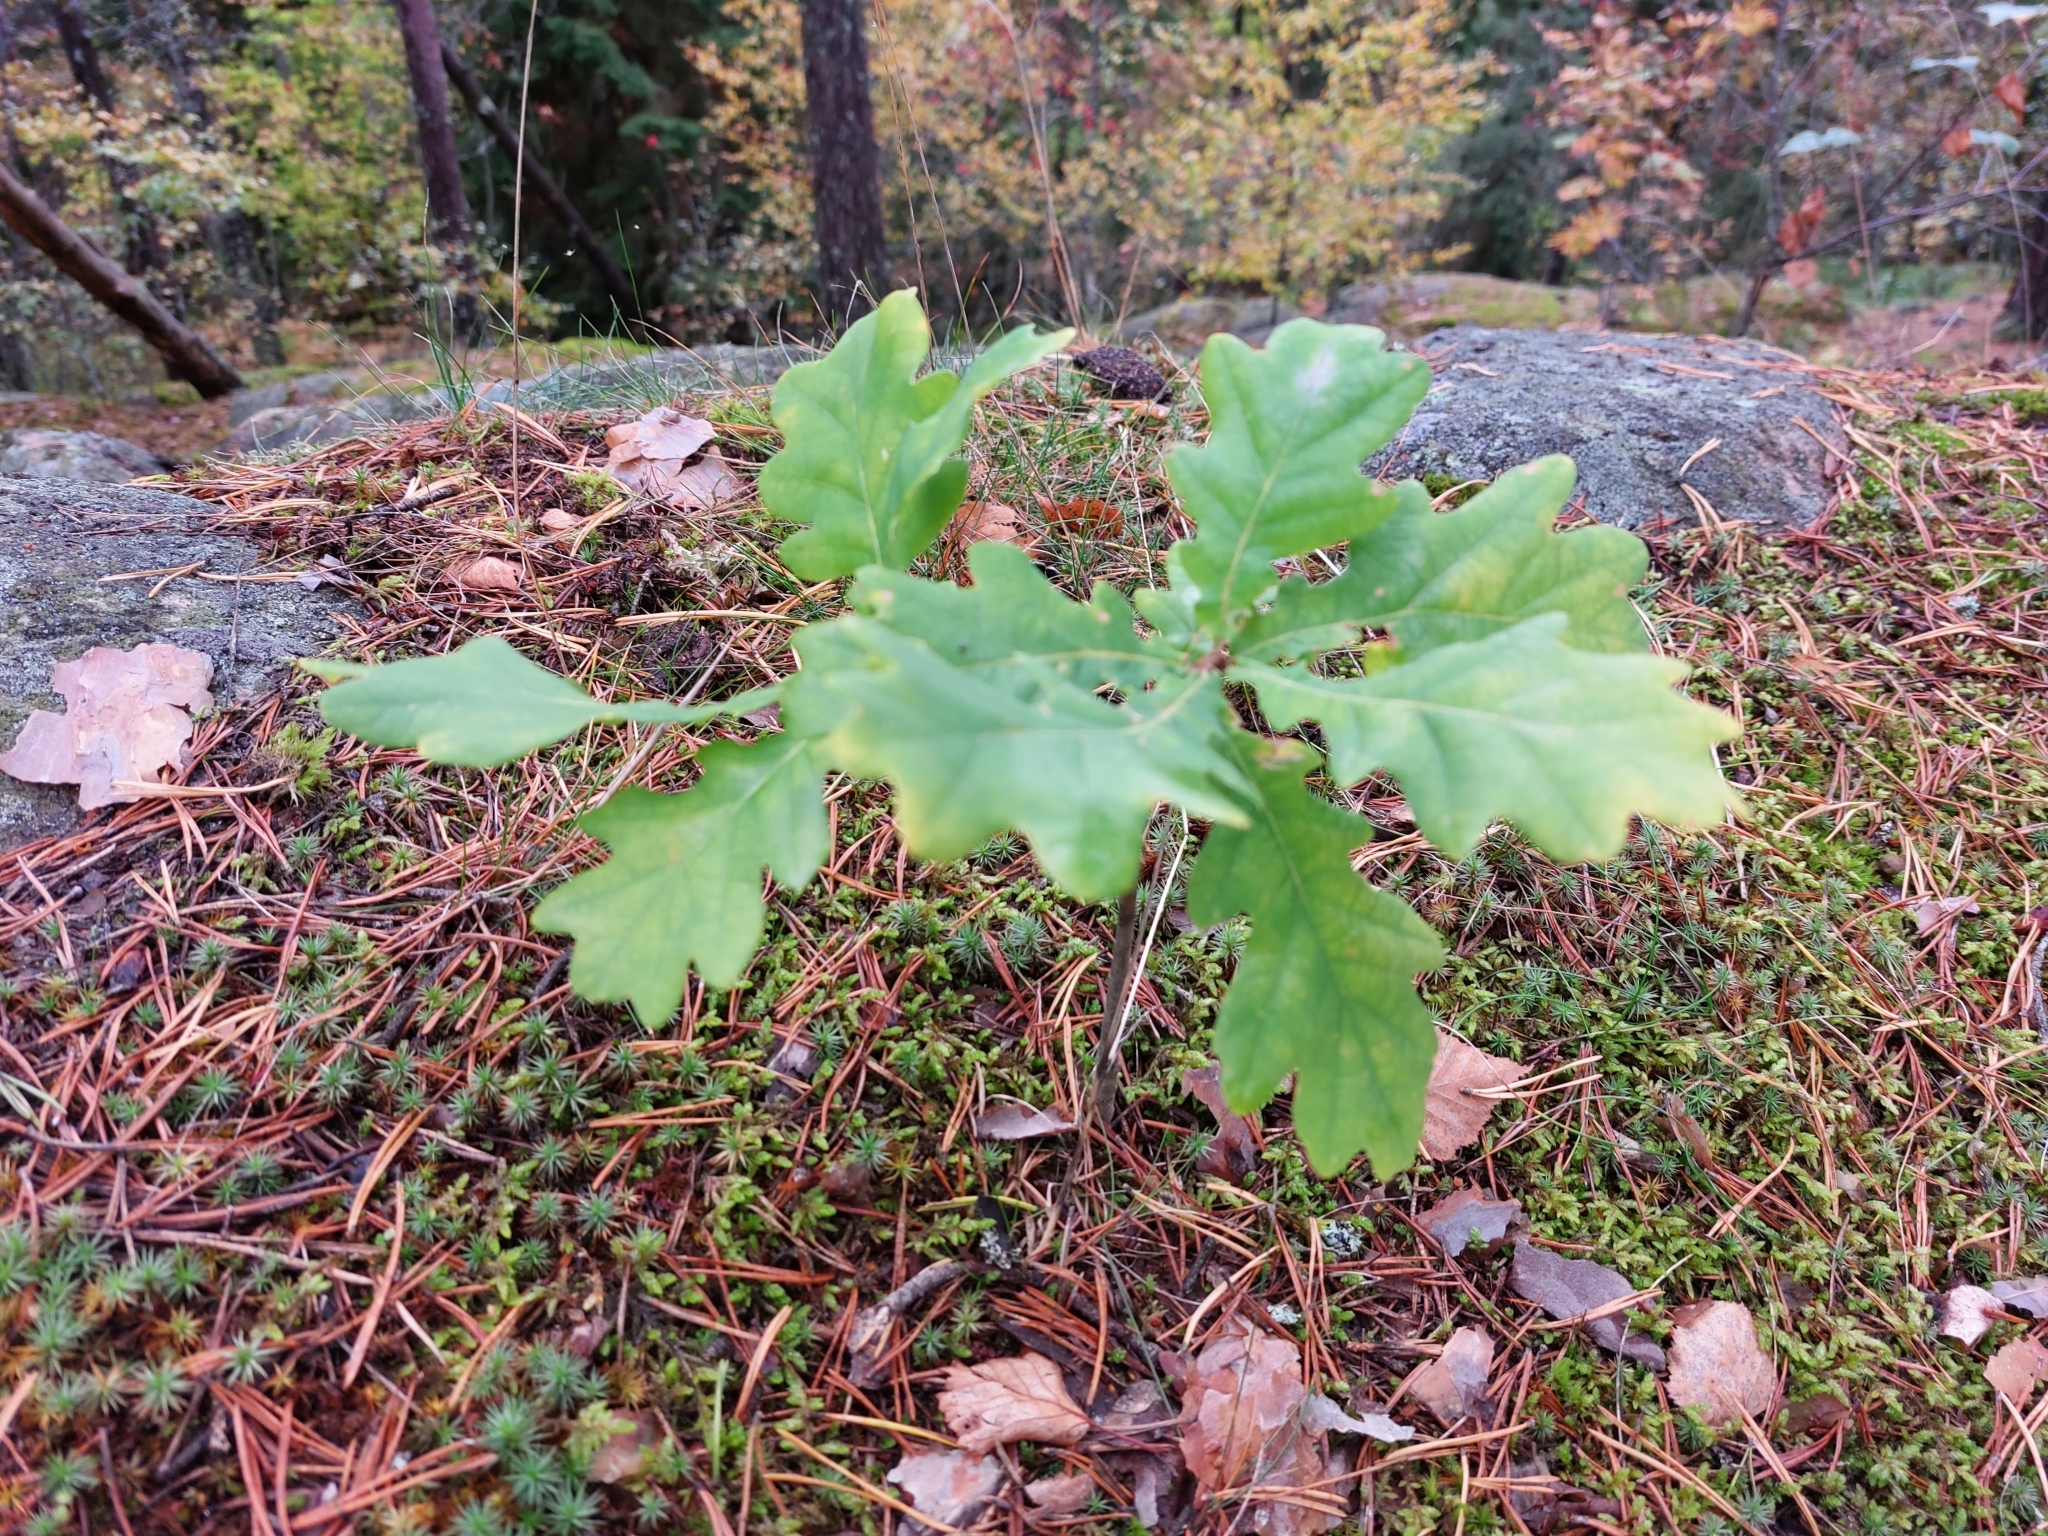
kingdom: Plantae
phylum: Tracheophyta
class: Magnoliopsida
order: Fagales
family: Fagaceae
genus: Quercus
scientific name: Quercus robur
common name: Pedunculate oak
